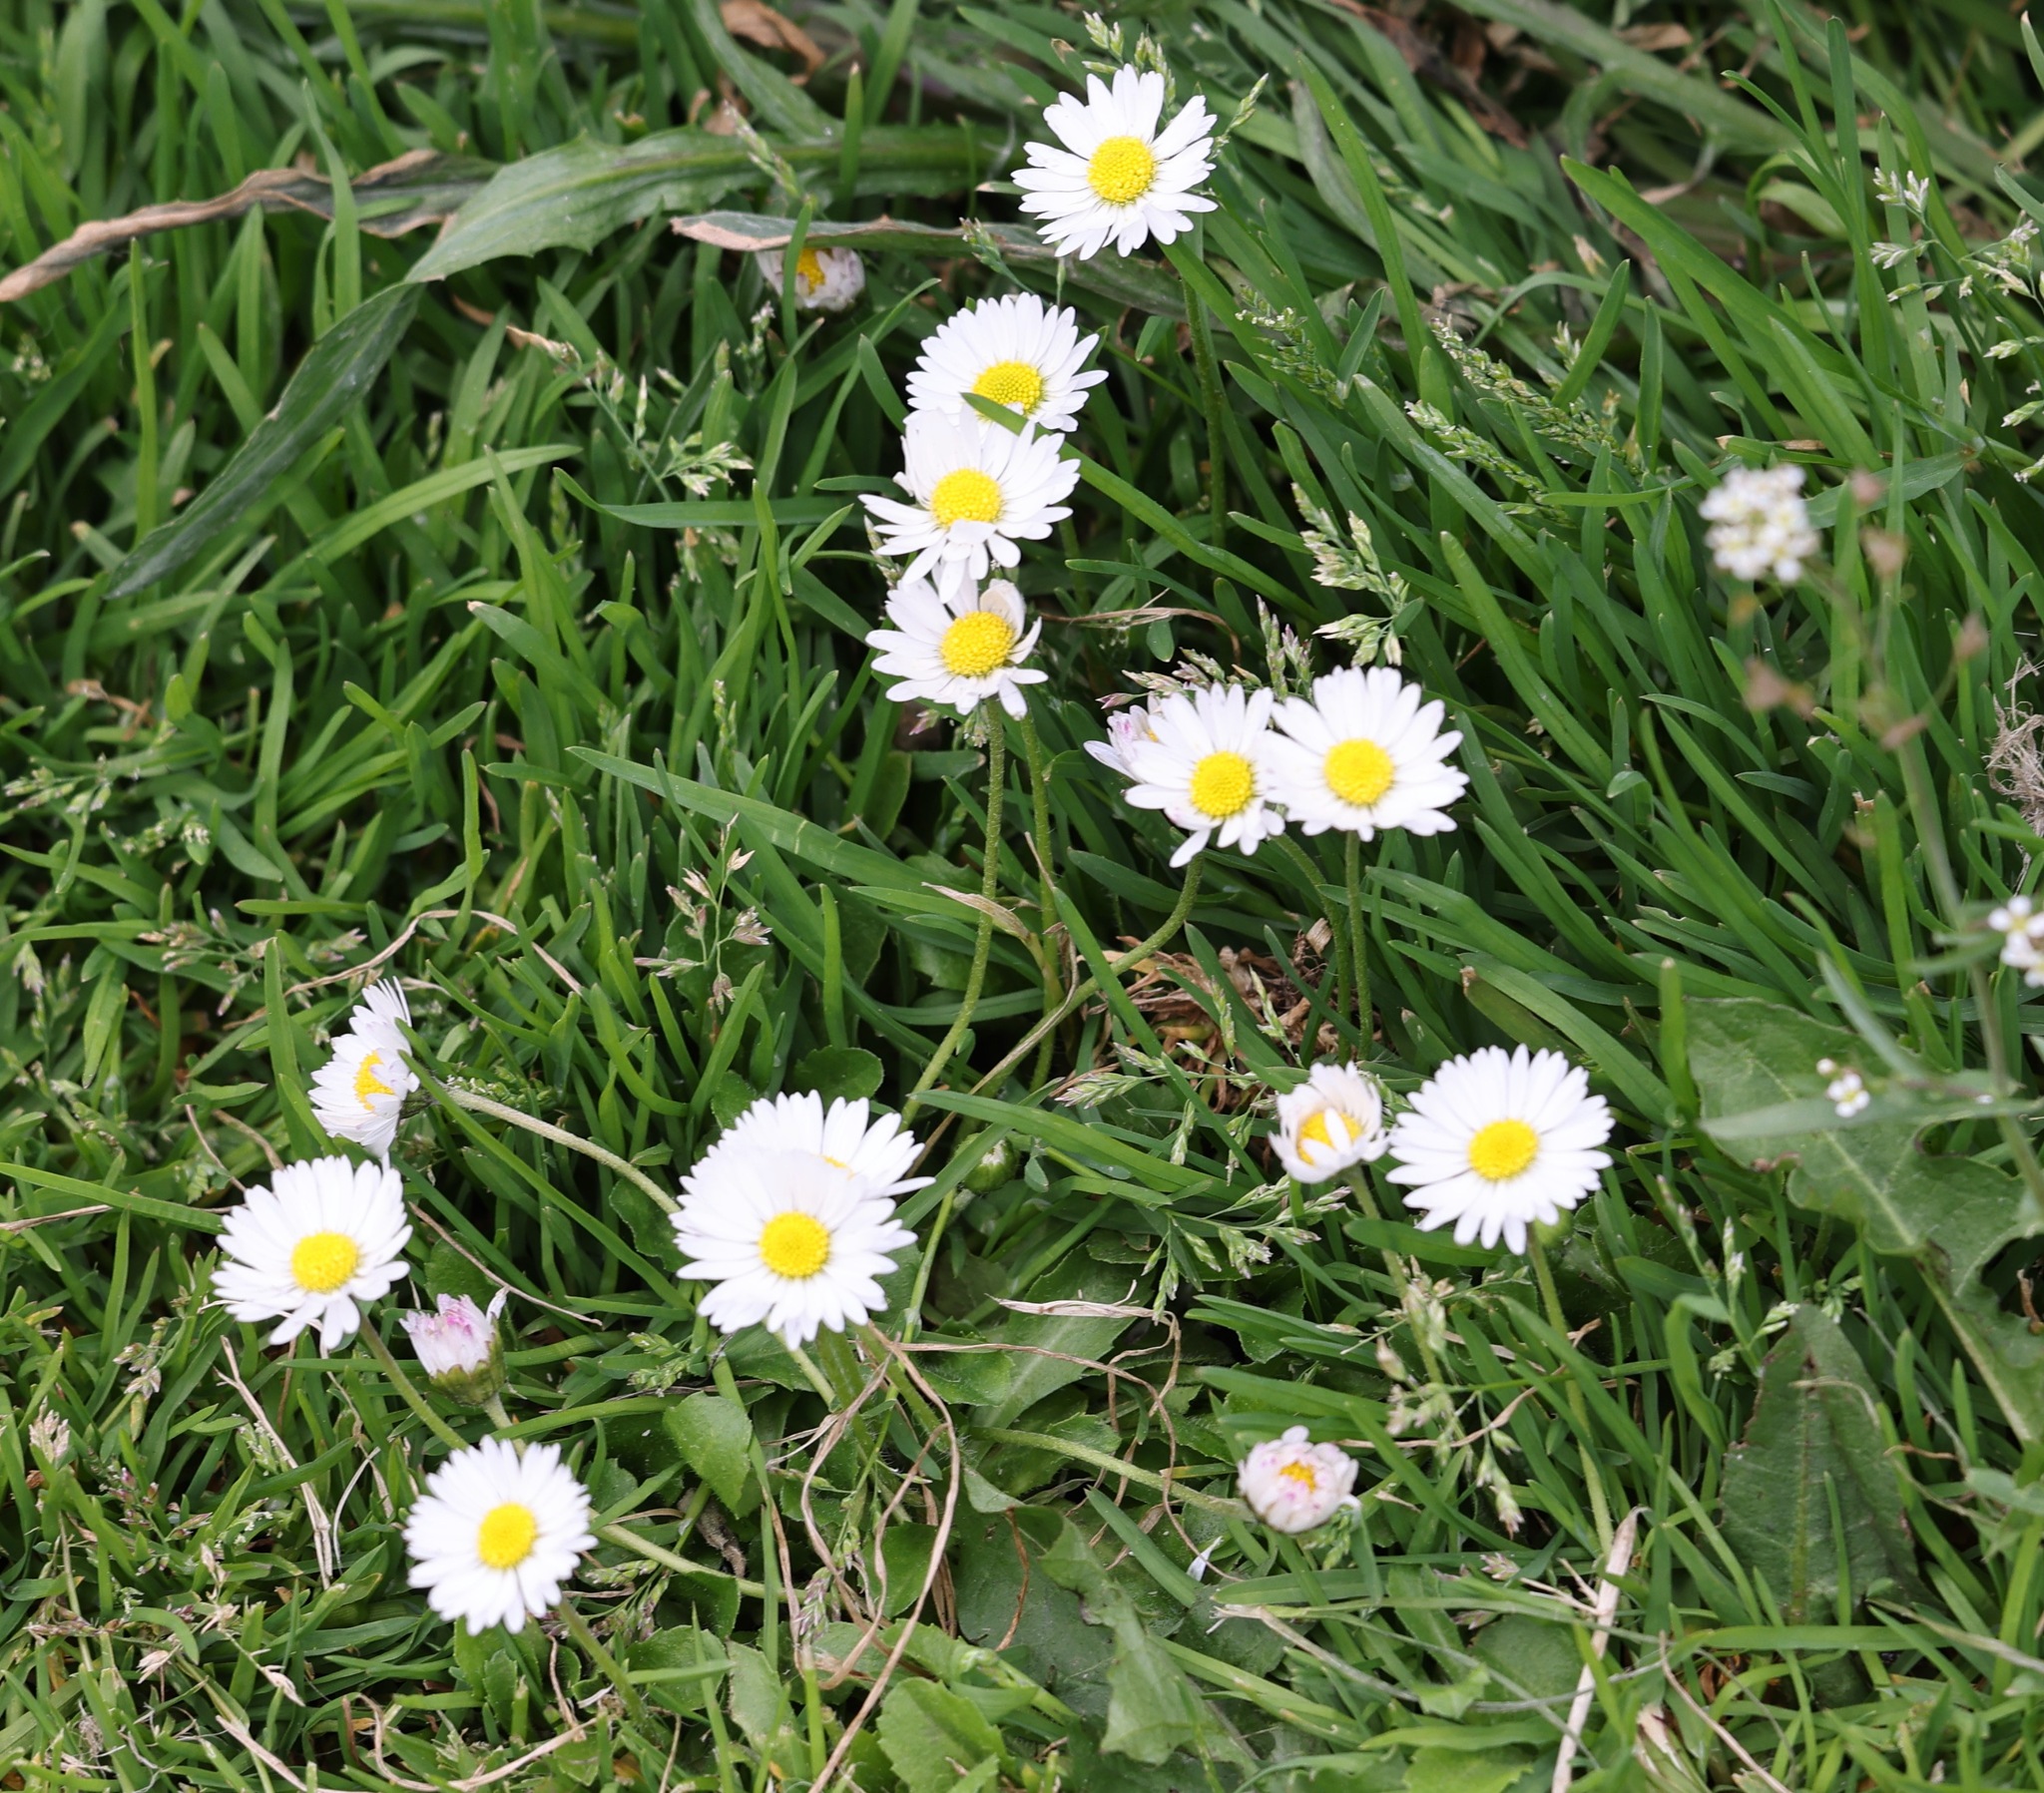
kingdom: Plantae
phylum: Tracheophyta
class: Magnoliopsida
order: Asterales
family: Asteraceae
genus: Bellis
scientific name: Bellis perennis
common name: Lawndaisy
